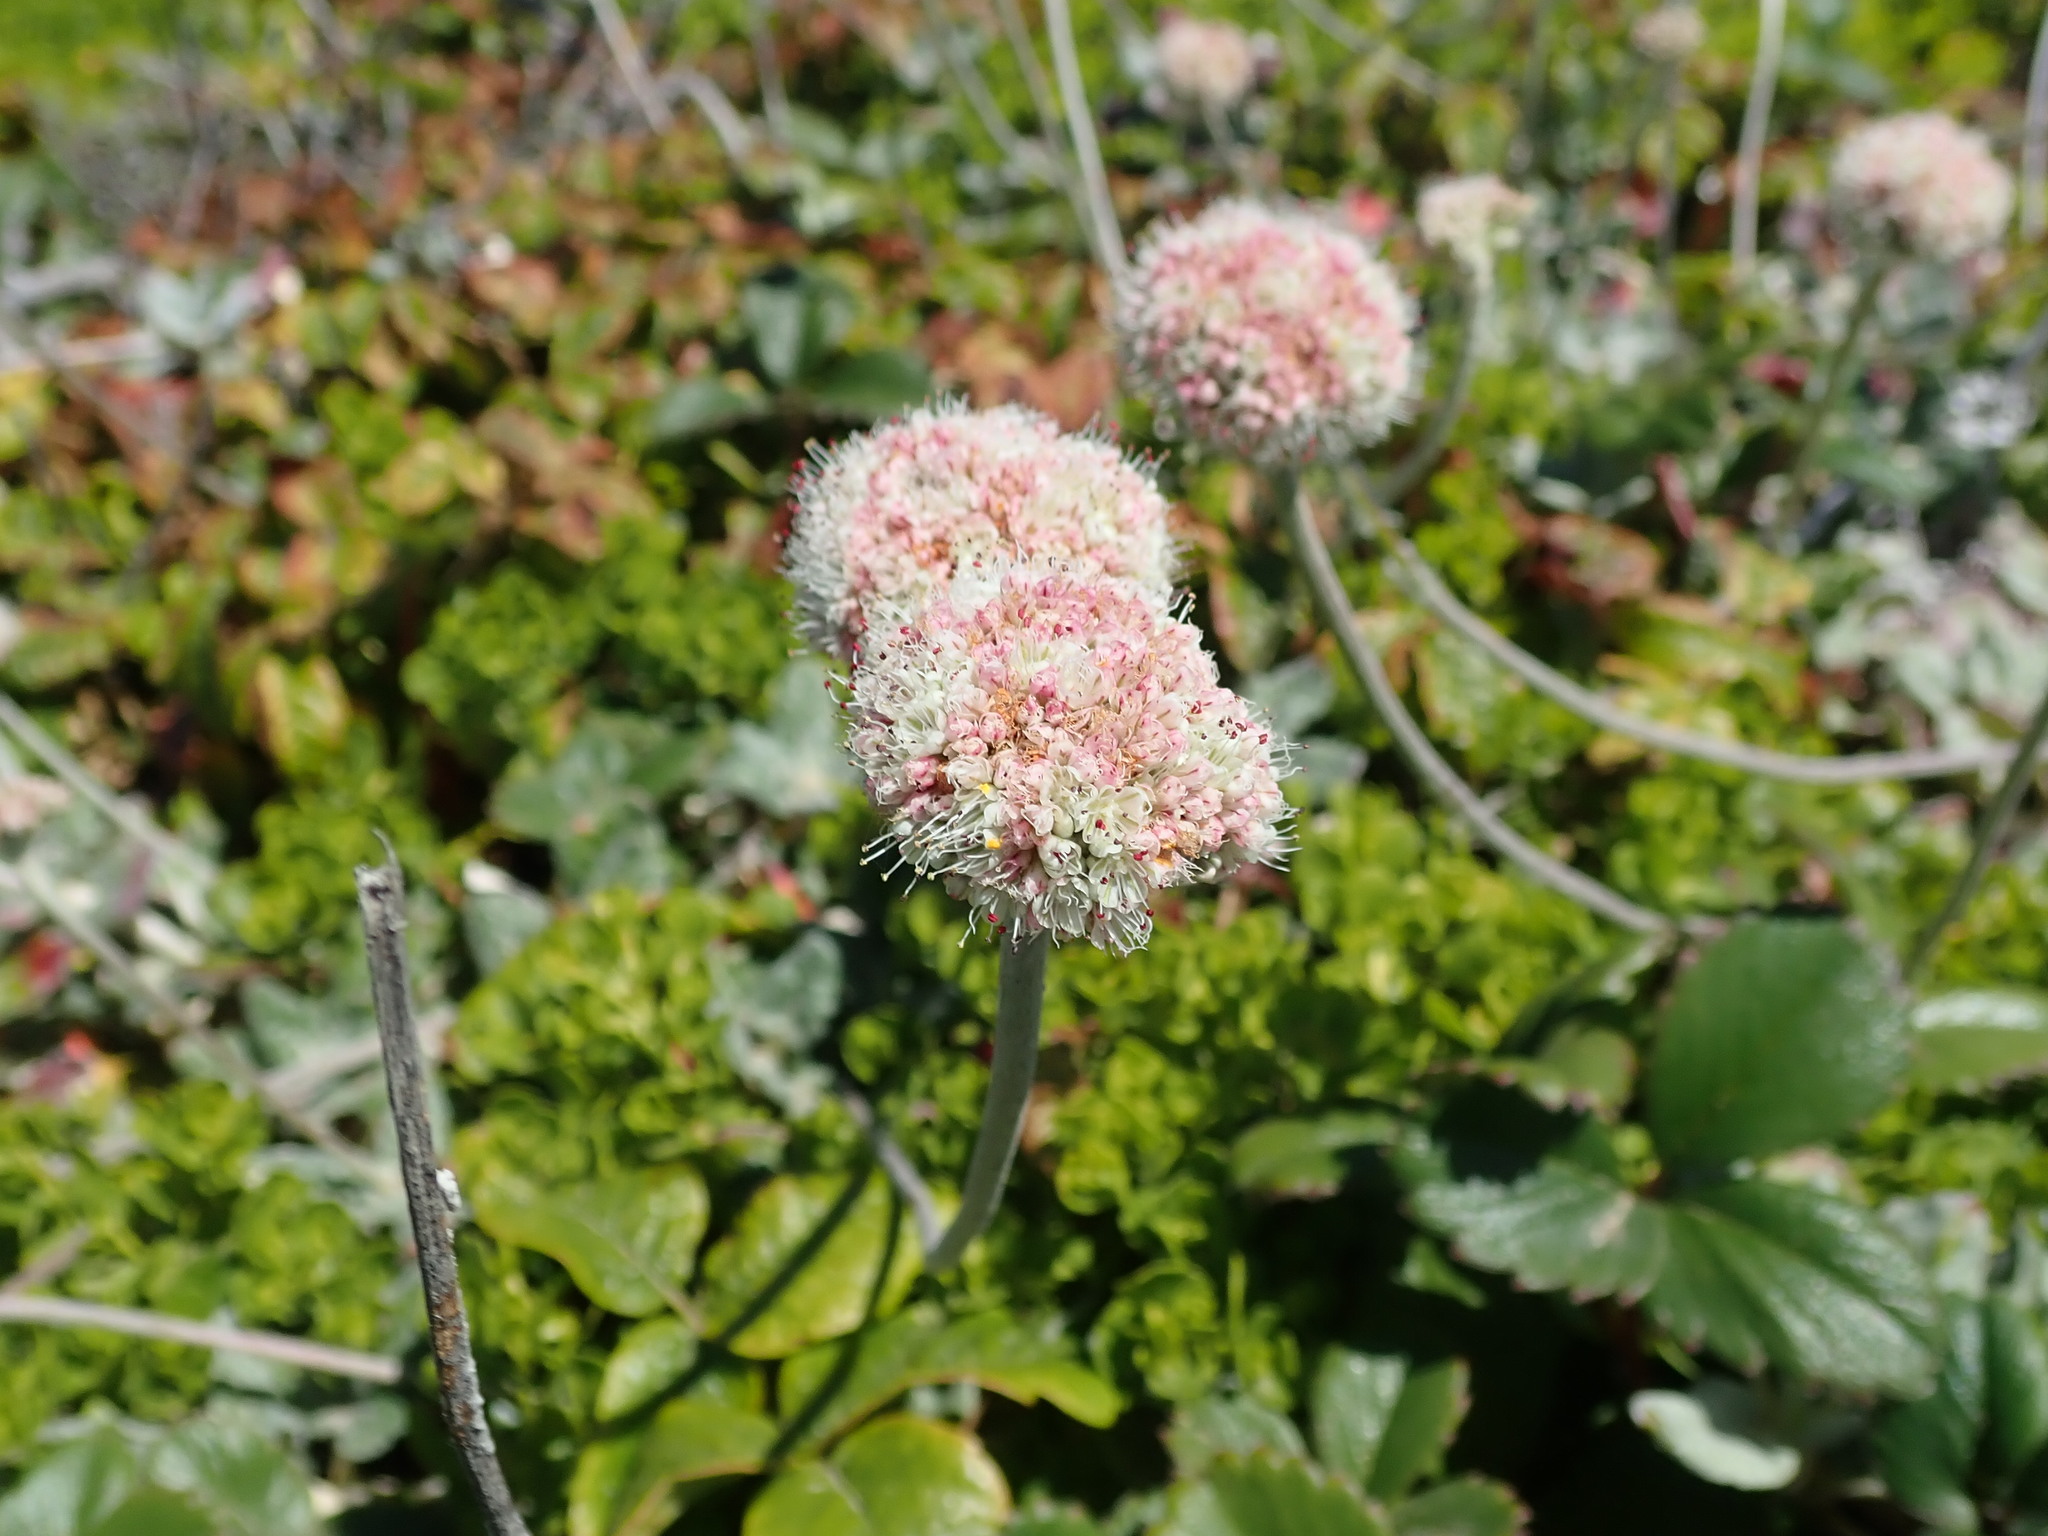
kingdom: Plantae
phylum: Tracheophyta
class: Magnoliopsida
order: Caryophyllales
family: Polygonaceae
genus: Eriogonum
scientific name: Eriogonum latifolium
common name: Seaside wild buckwheat
